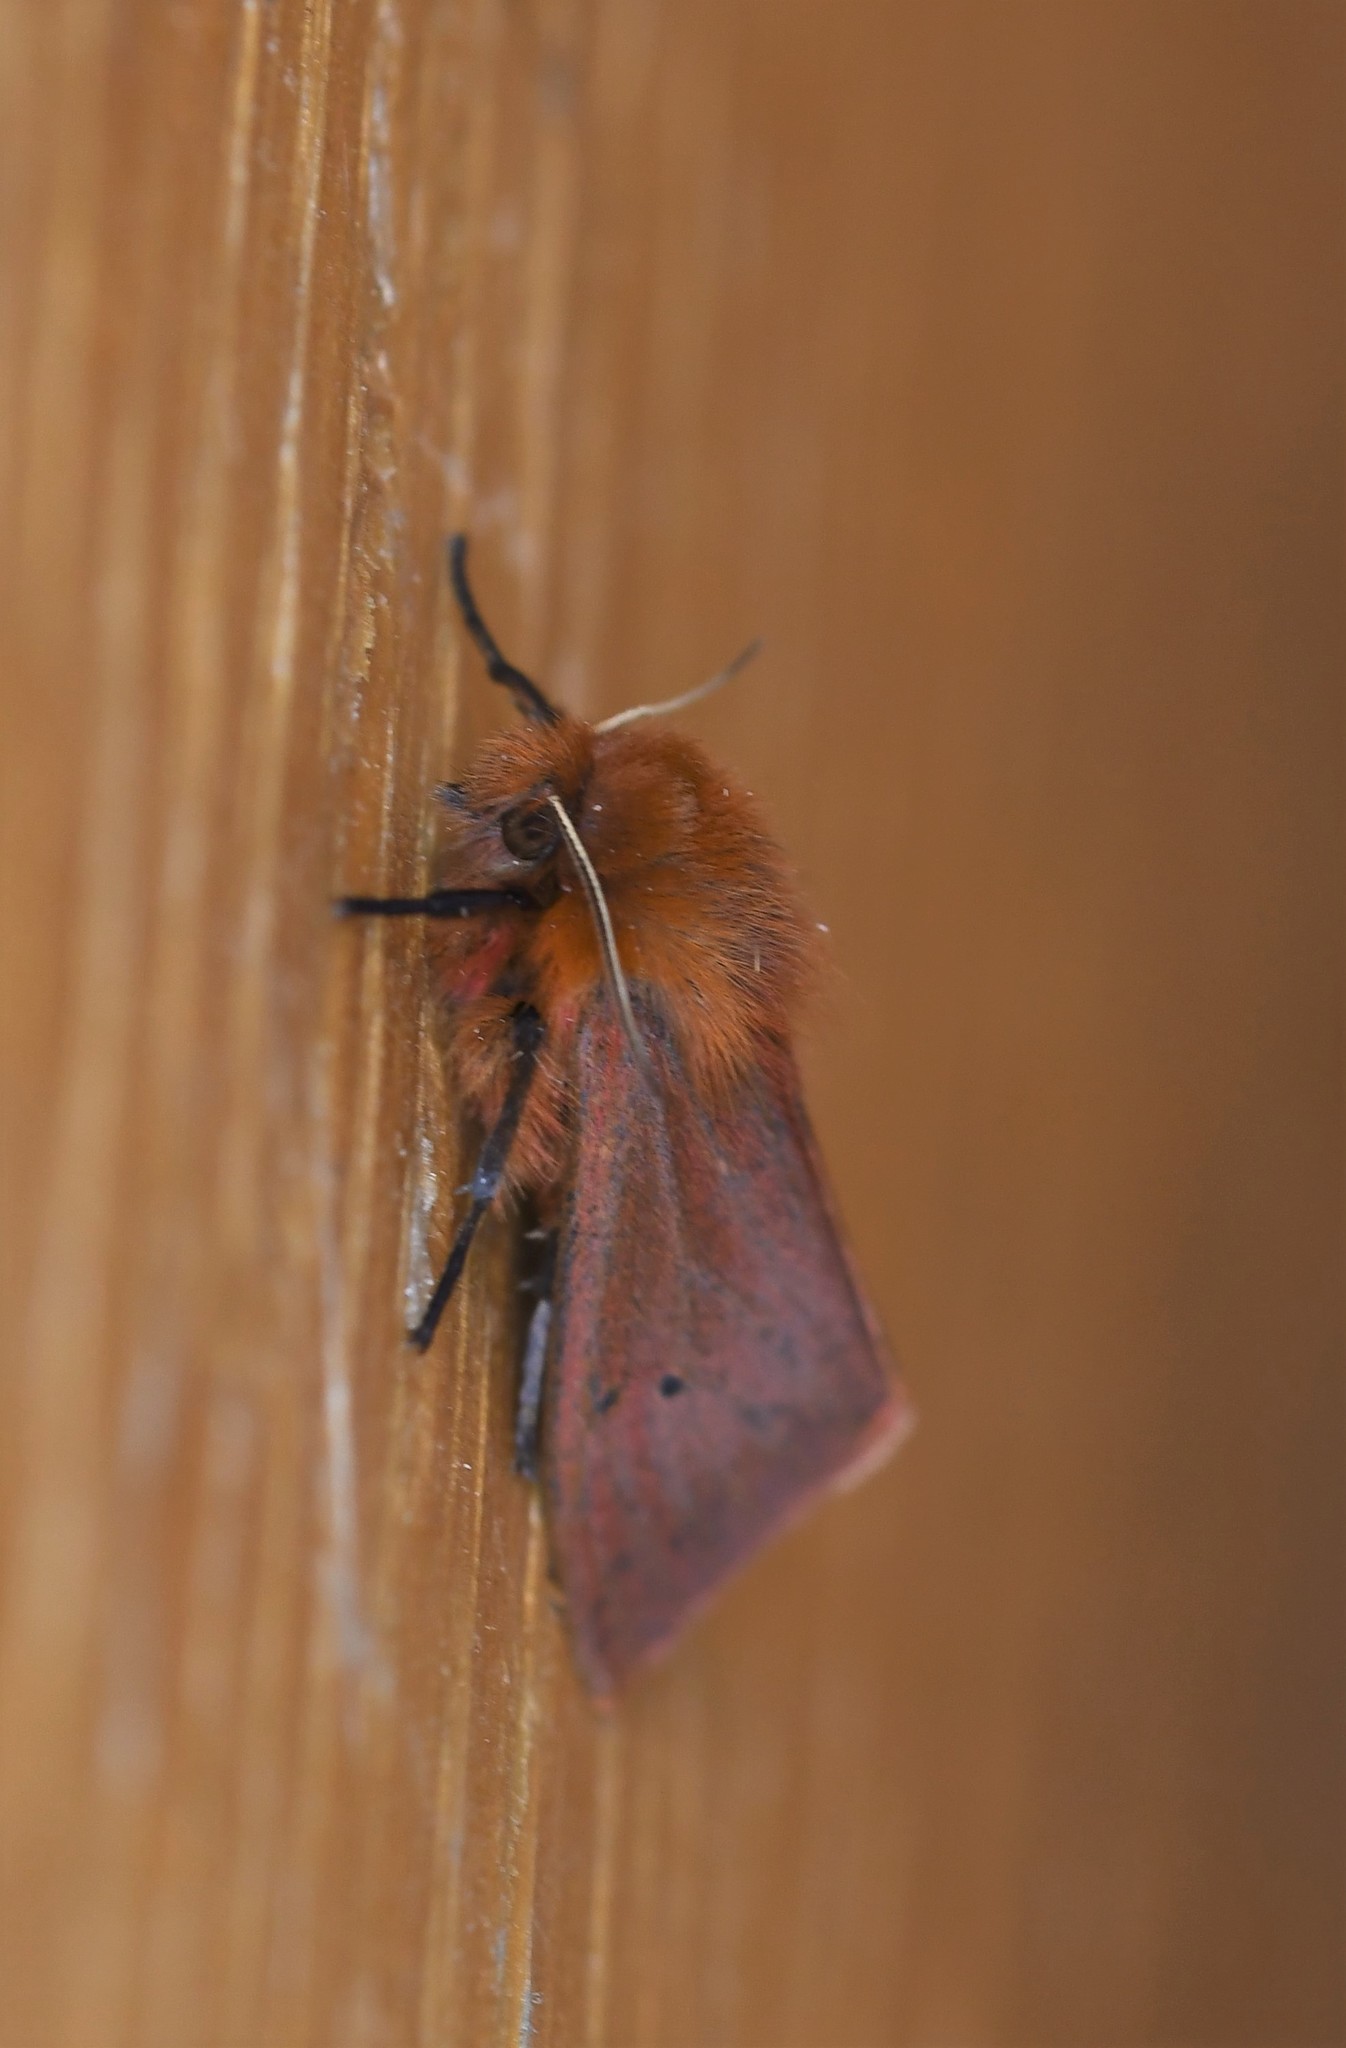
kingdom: Animalia
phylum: Arthropoda
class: Insecta
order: Lepidoptera
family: Erebidae
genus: Phragmatobia
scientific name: Phragmatobia fuliginosa
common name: Ruby tiger
